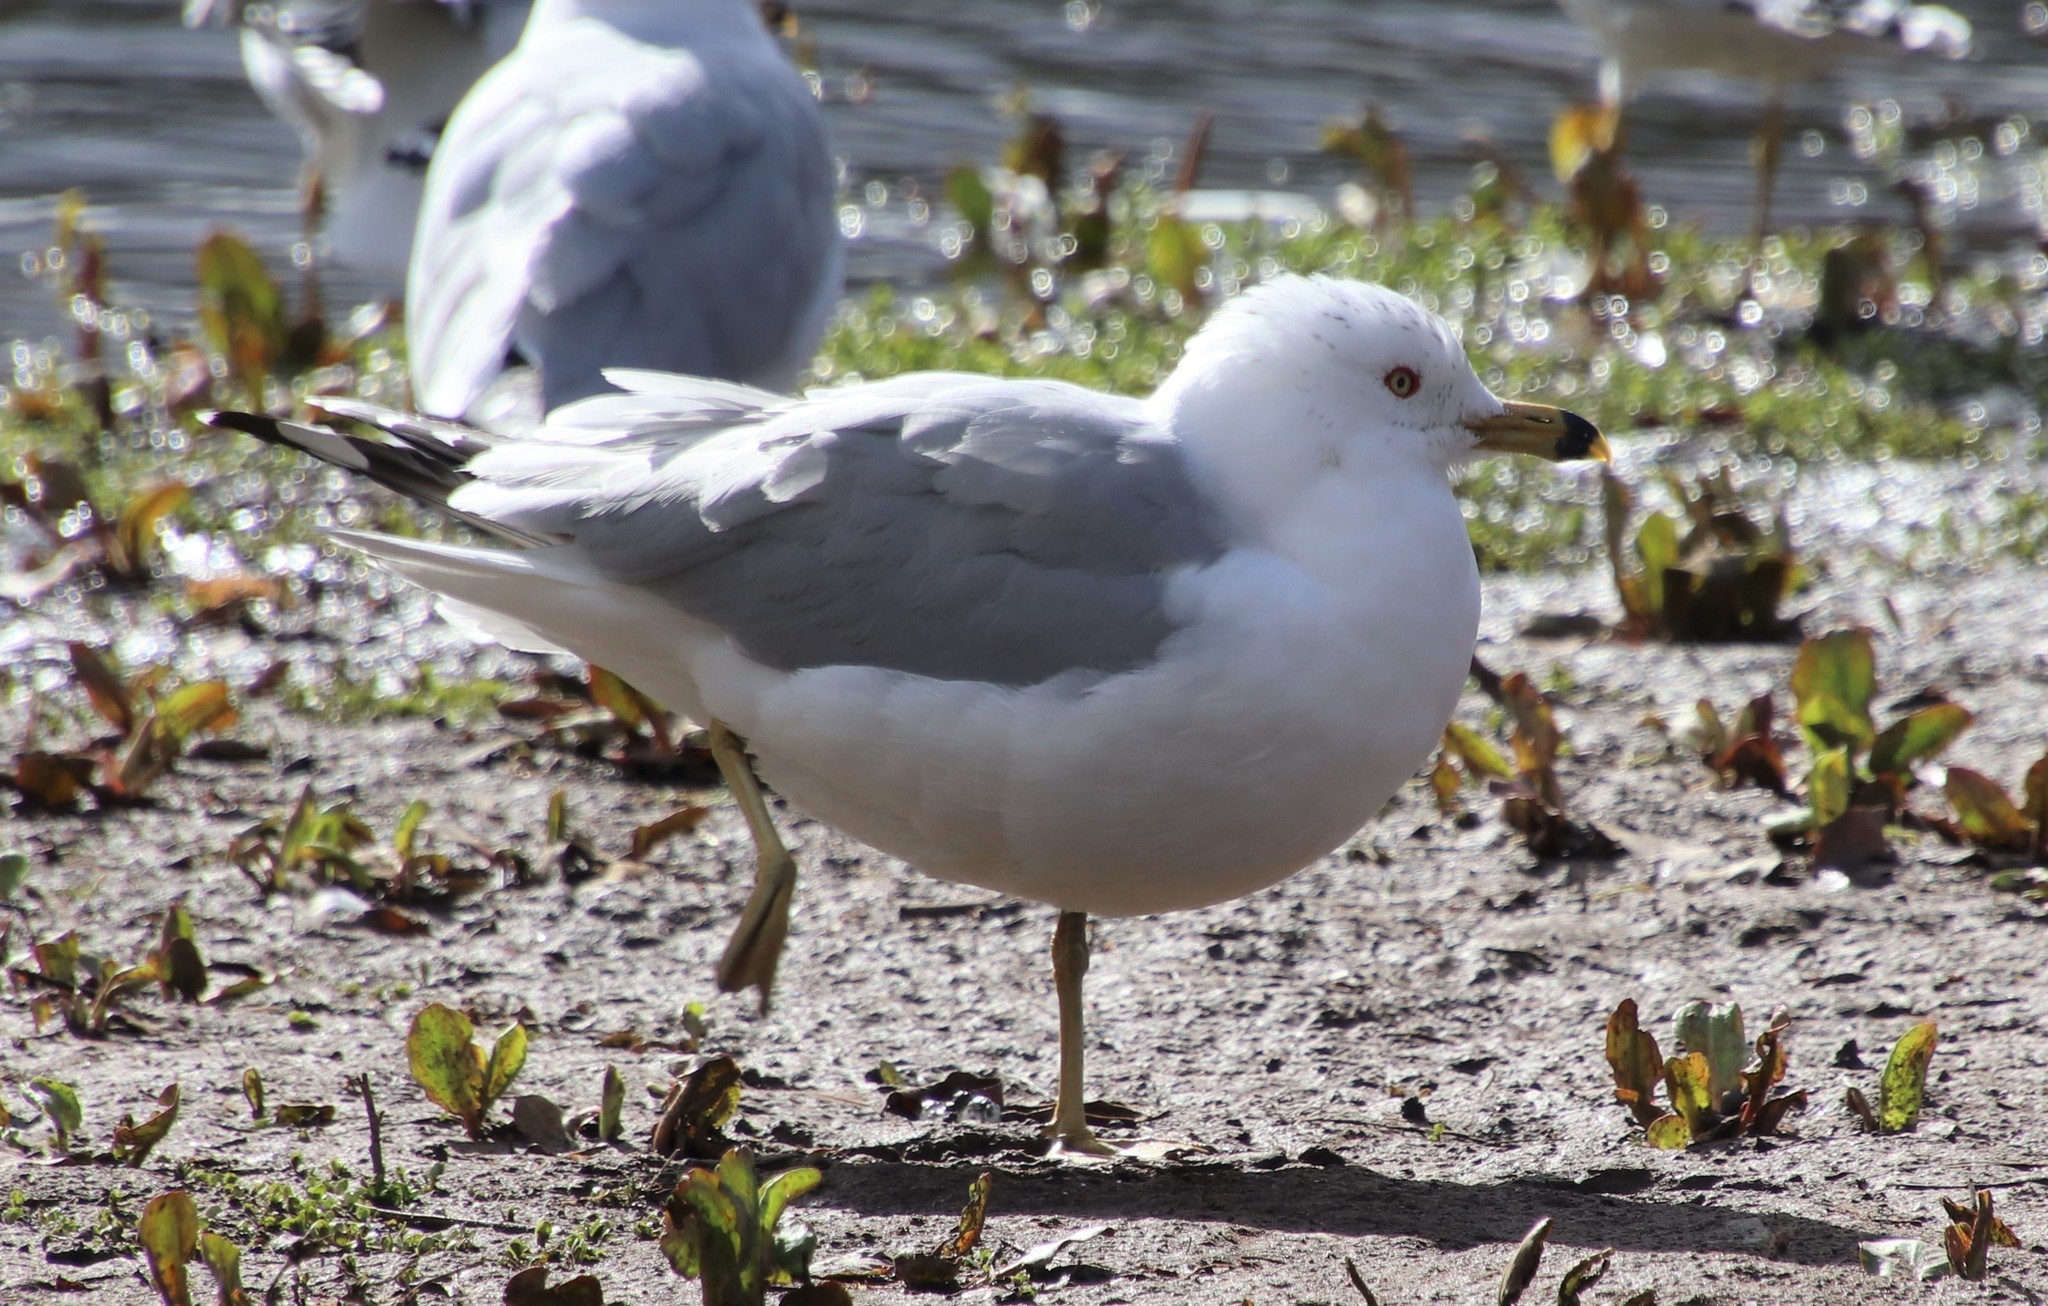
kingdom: Animalia
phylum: Chordata
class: Aves
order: Charadriiformes
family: Laridae
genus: Larus
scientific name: Larus delawarensis
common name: Ring-billed gull
